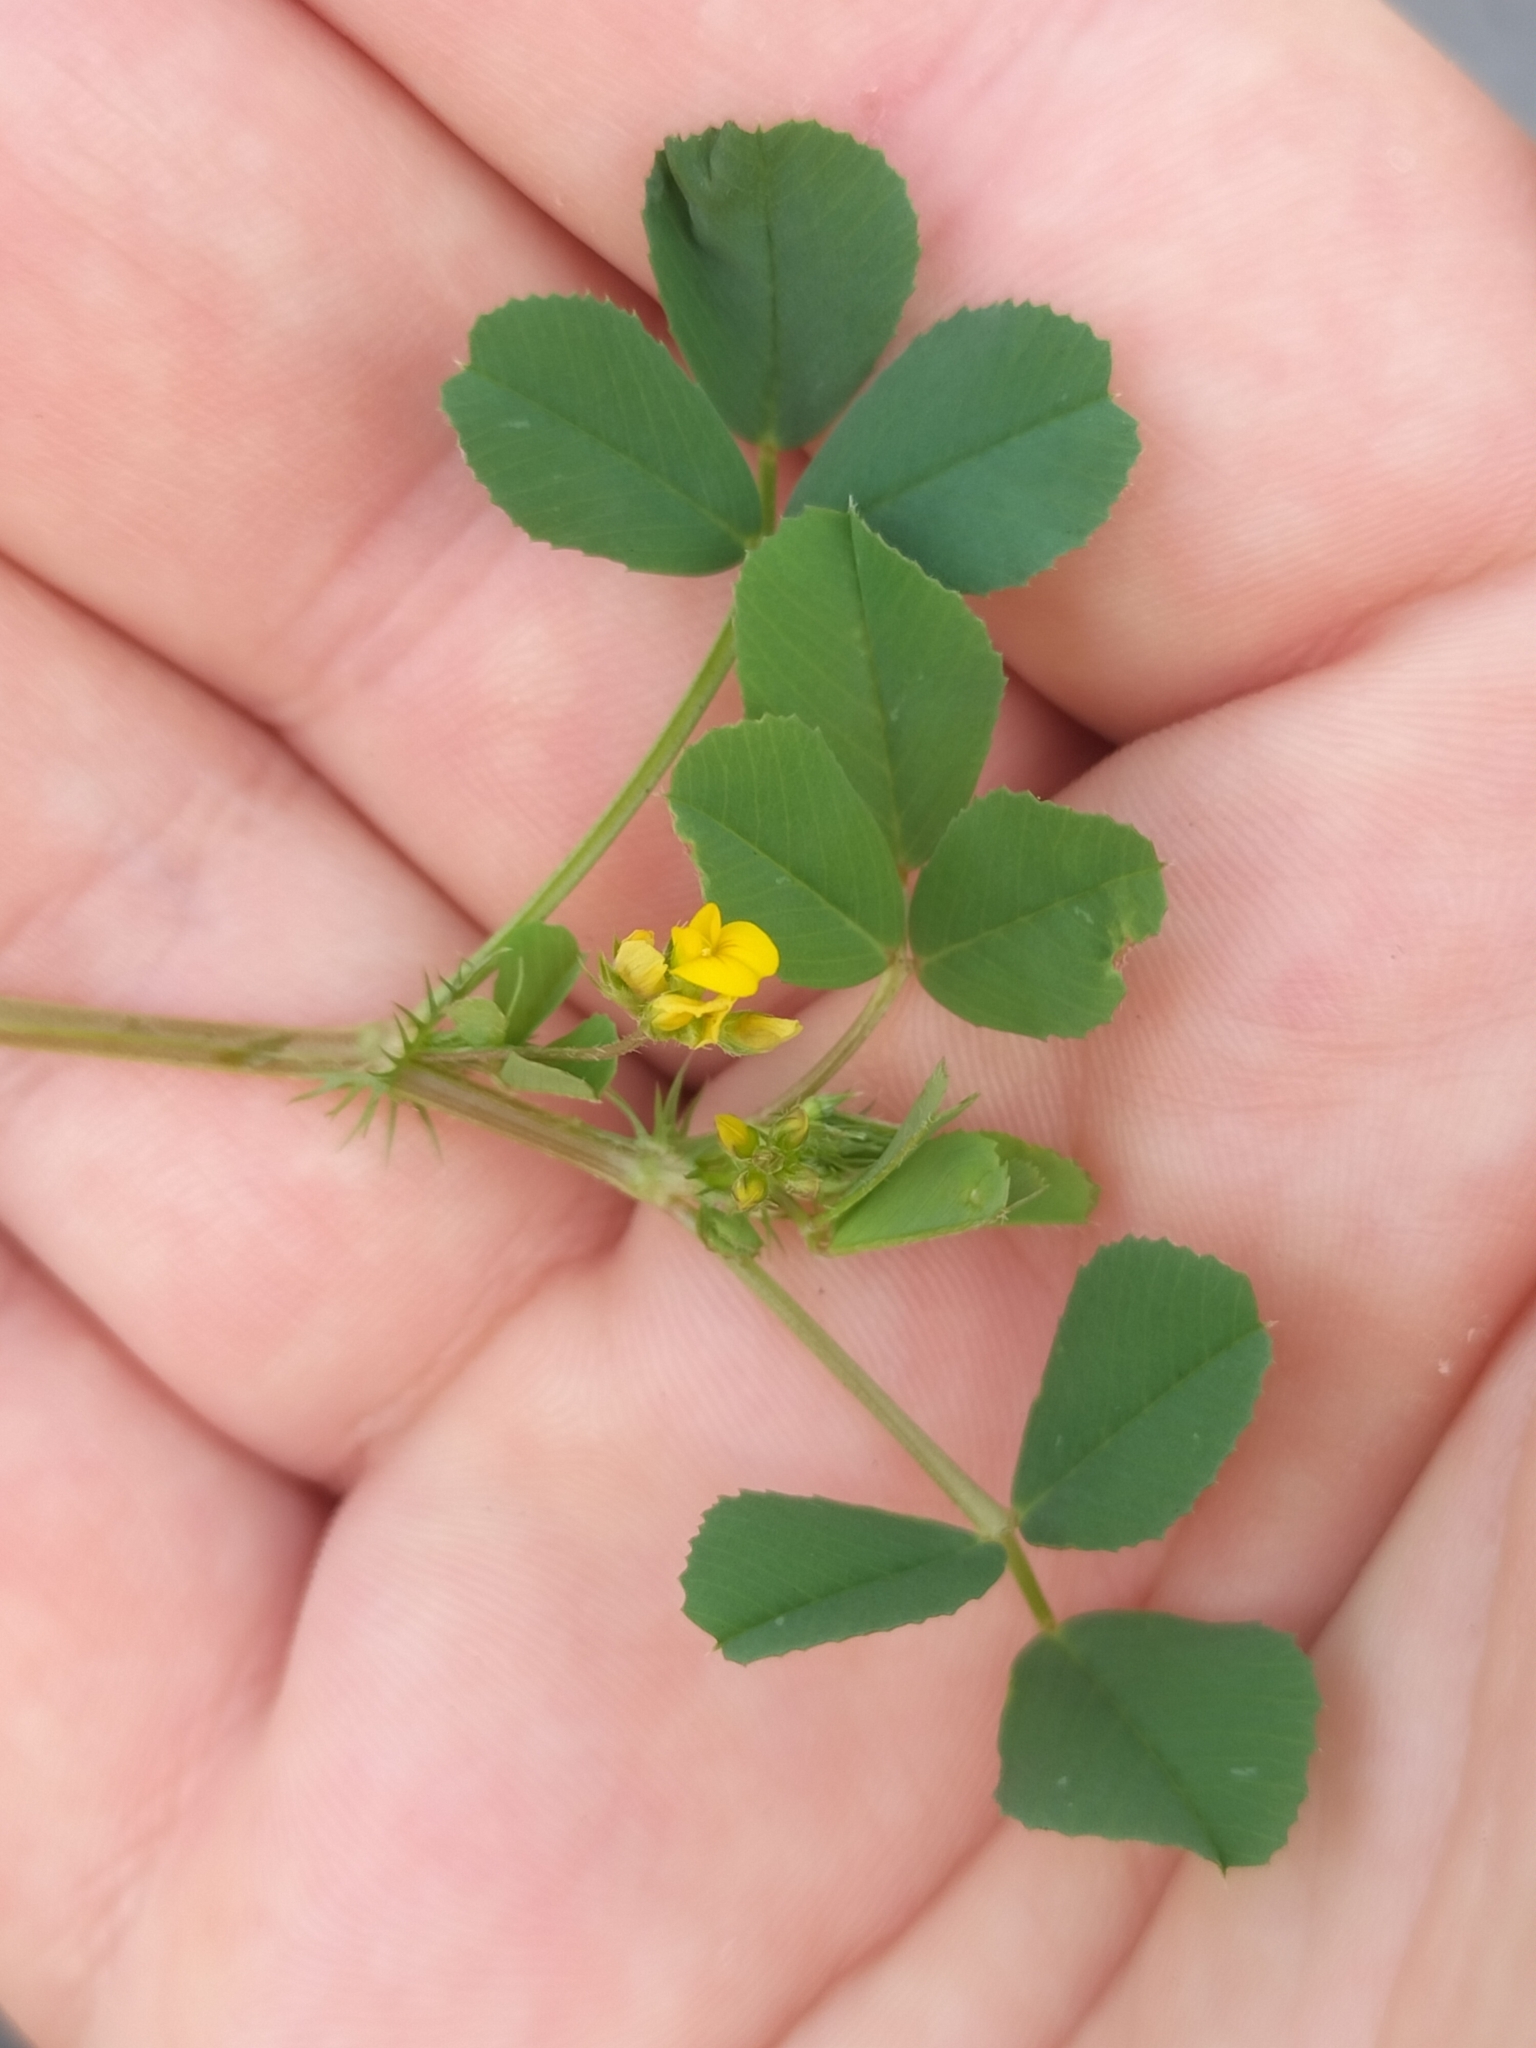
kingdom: Plantae
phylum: Tracheophyta
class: Magnoliopsida
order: Fabales
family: Fabaceae
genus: Medicago
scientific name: Medicago polymorpha
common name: Burclover
